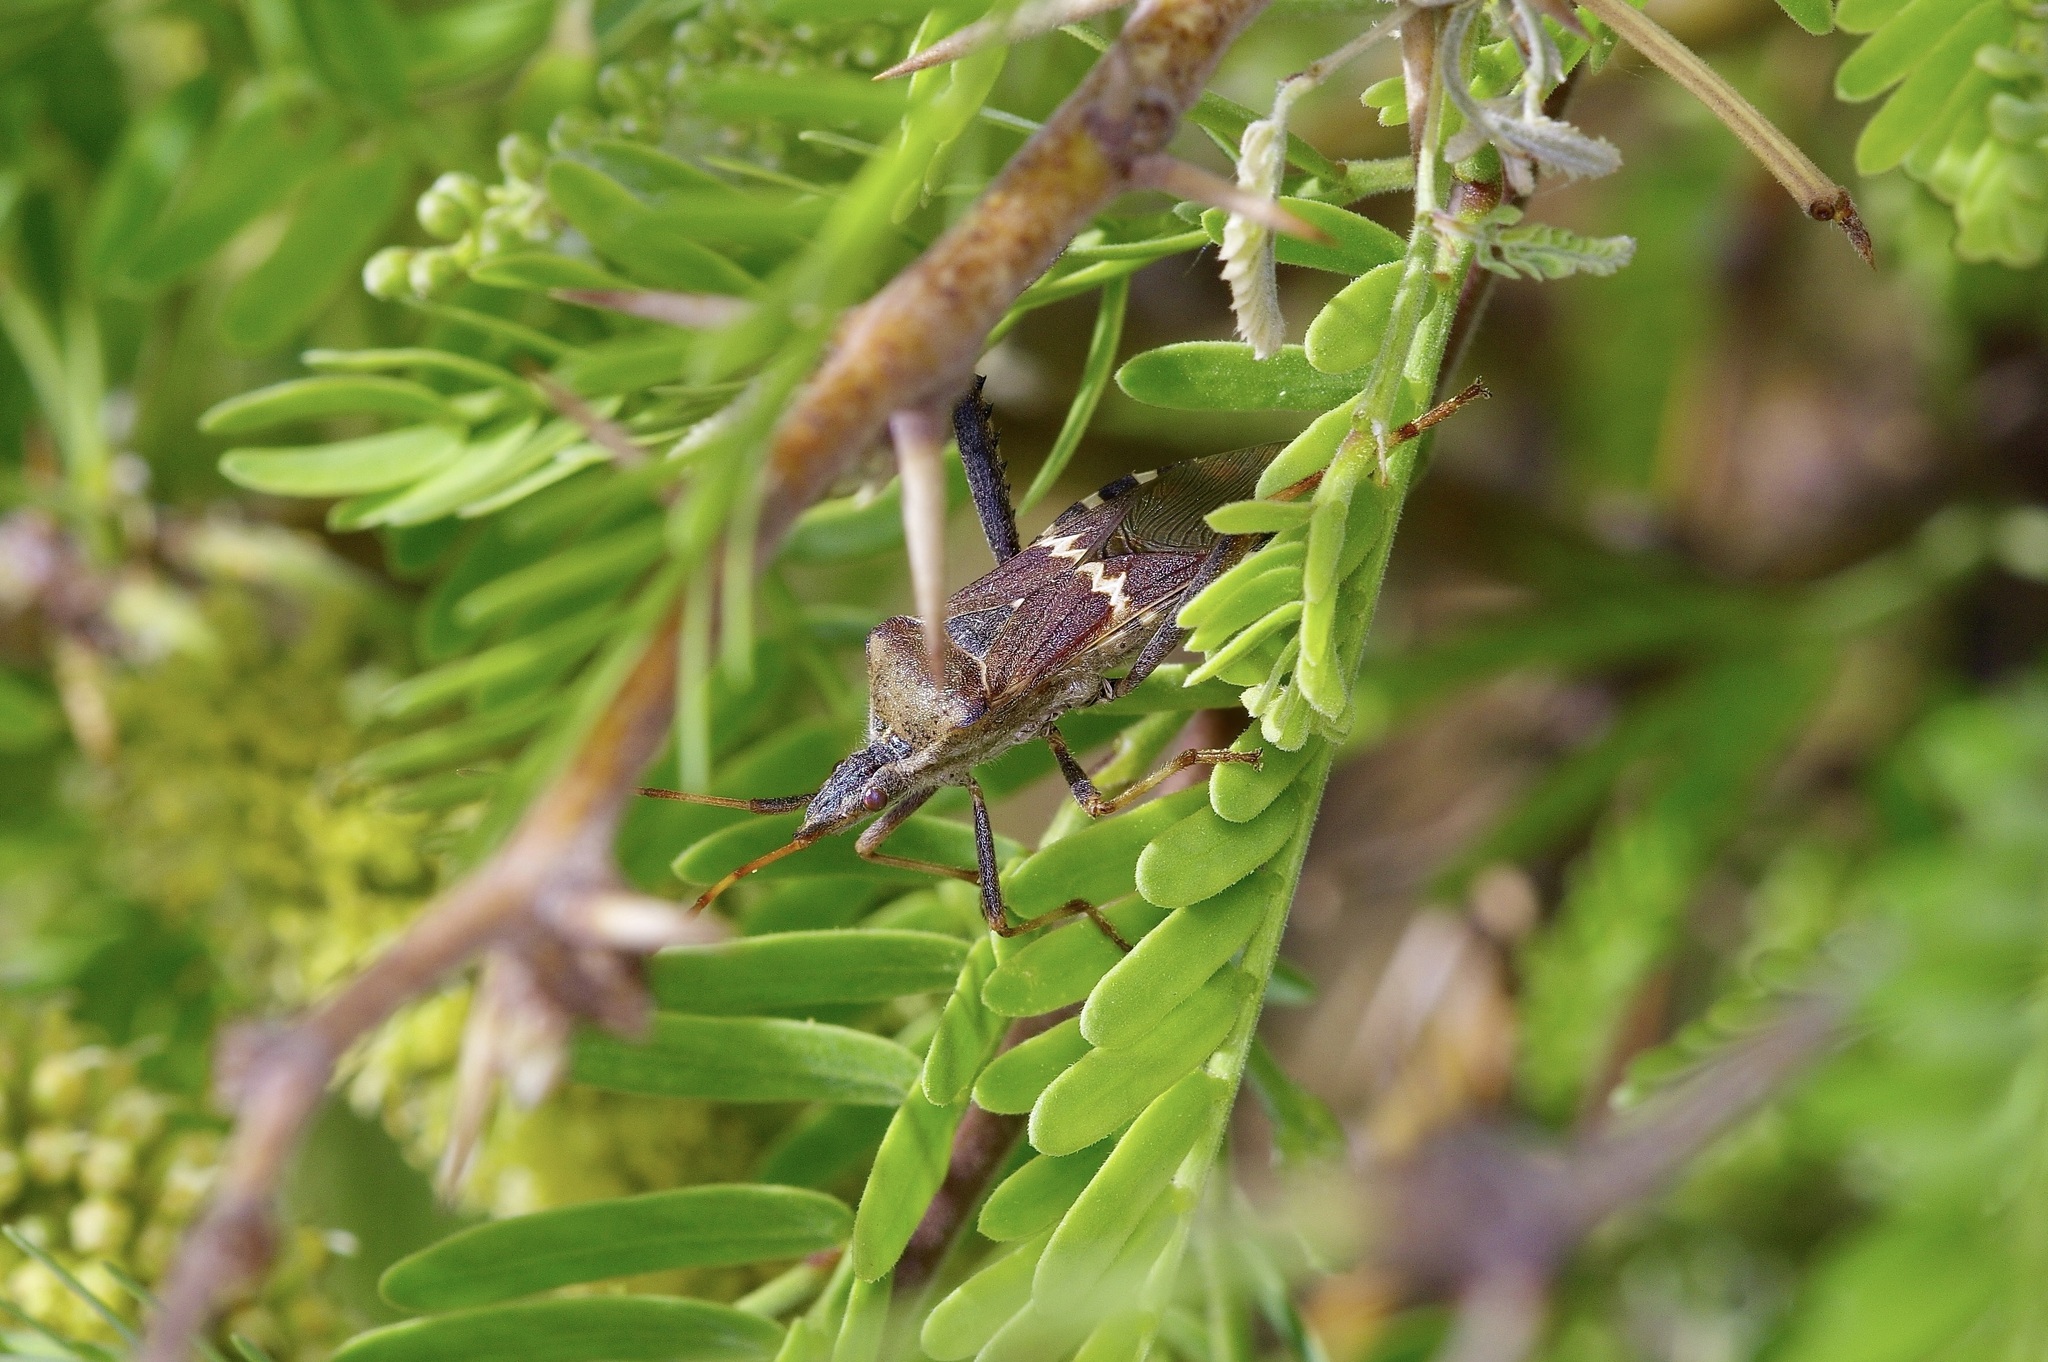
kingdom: Animalia
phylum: Arthropoda
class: Insecta
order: Hemiptera
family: Coreidae
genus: Leptoglossus
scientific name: Leptoglossus clypealis
